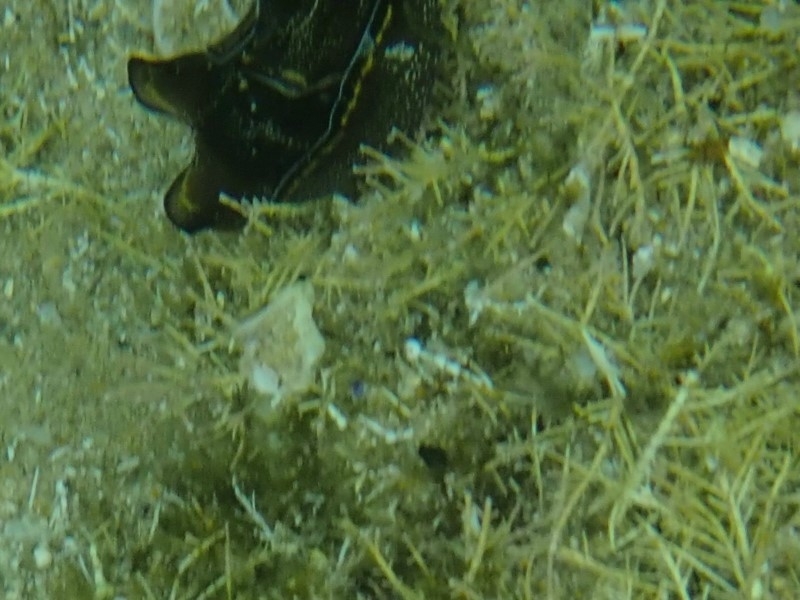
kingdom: Animalia
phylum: Mollusca
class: Gastropoda
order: Cephalaspidea
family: Aglajidae
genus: Philinopsis
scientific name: Philinopsis speciosa
